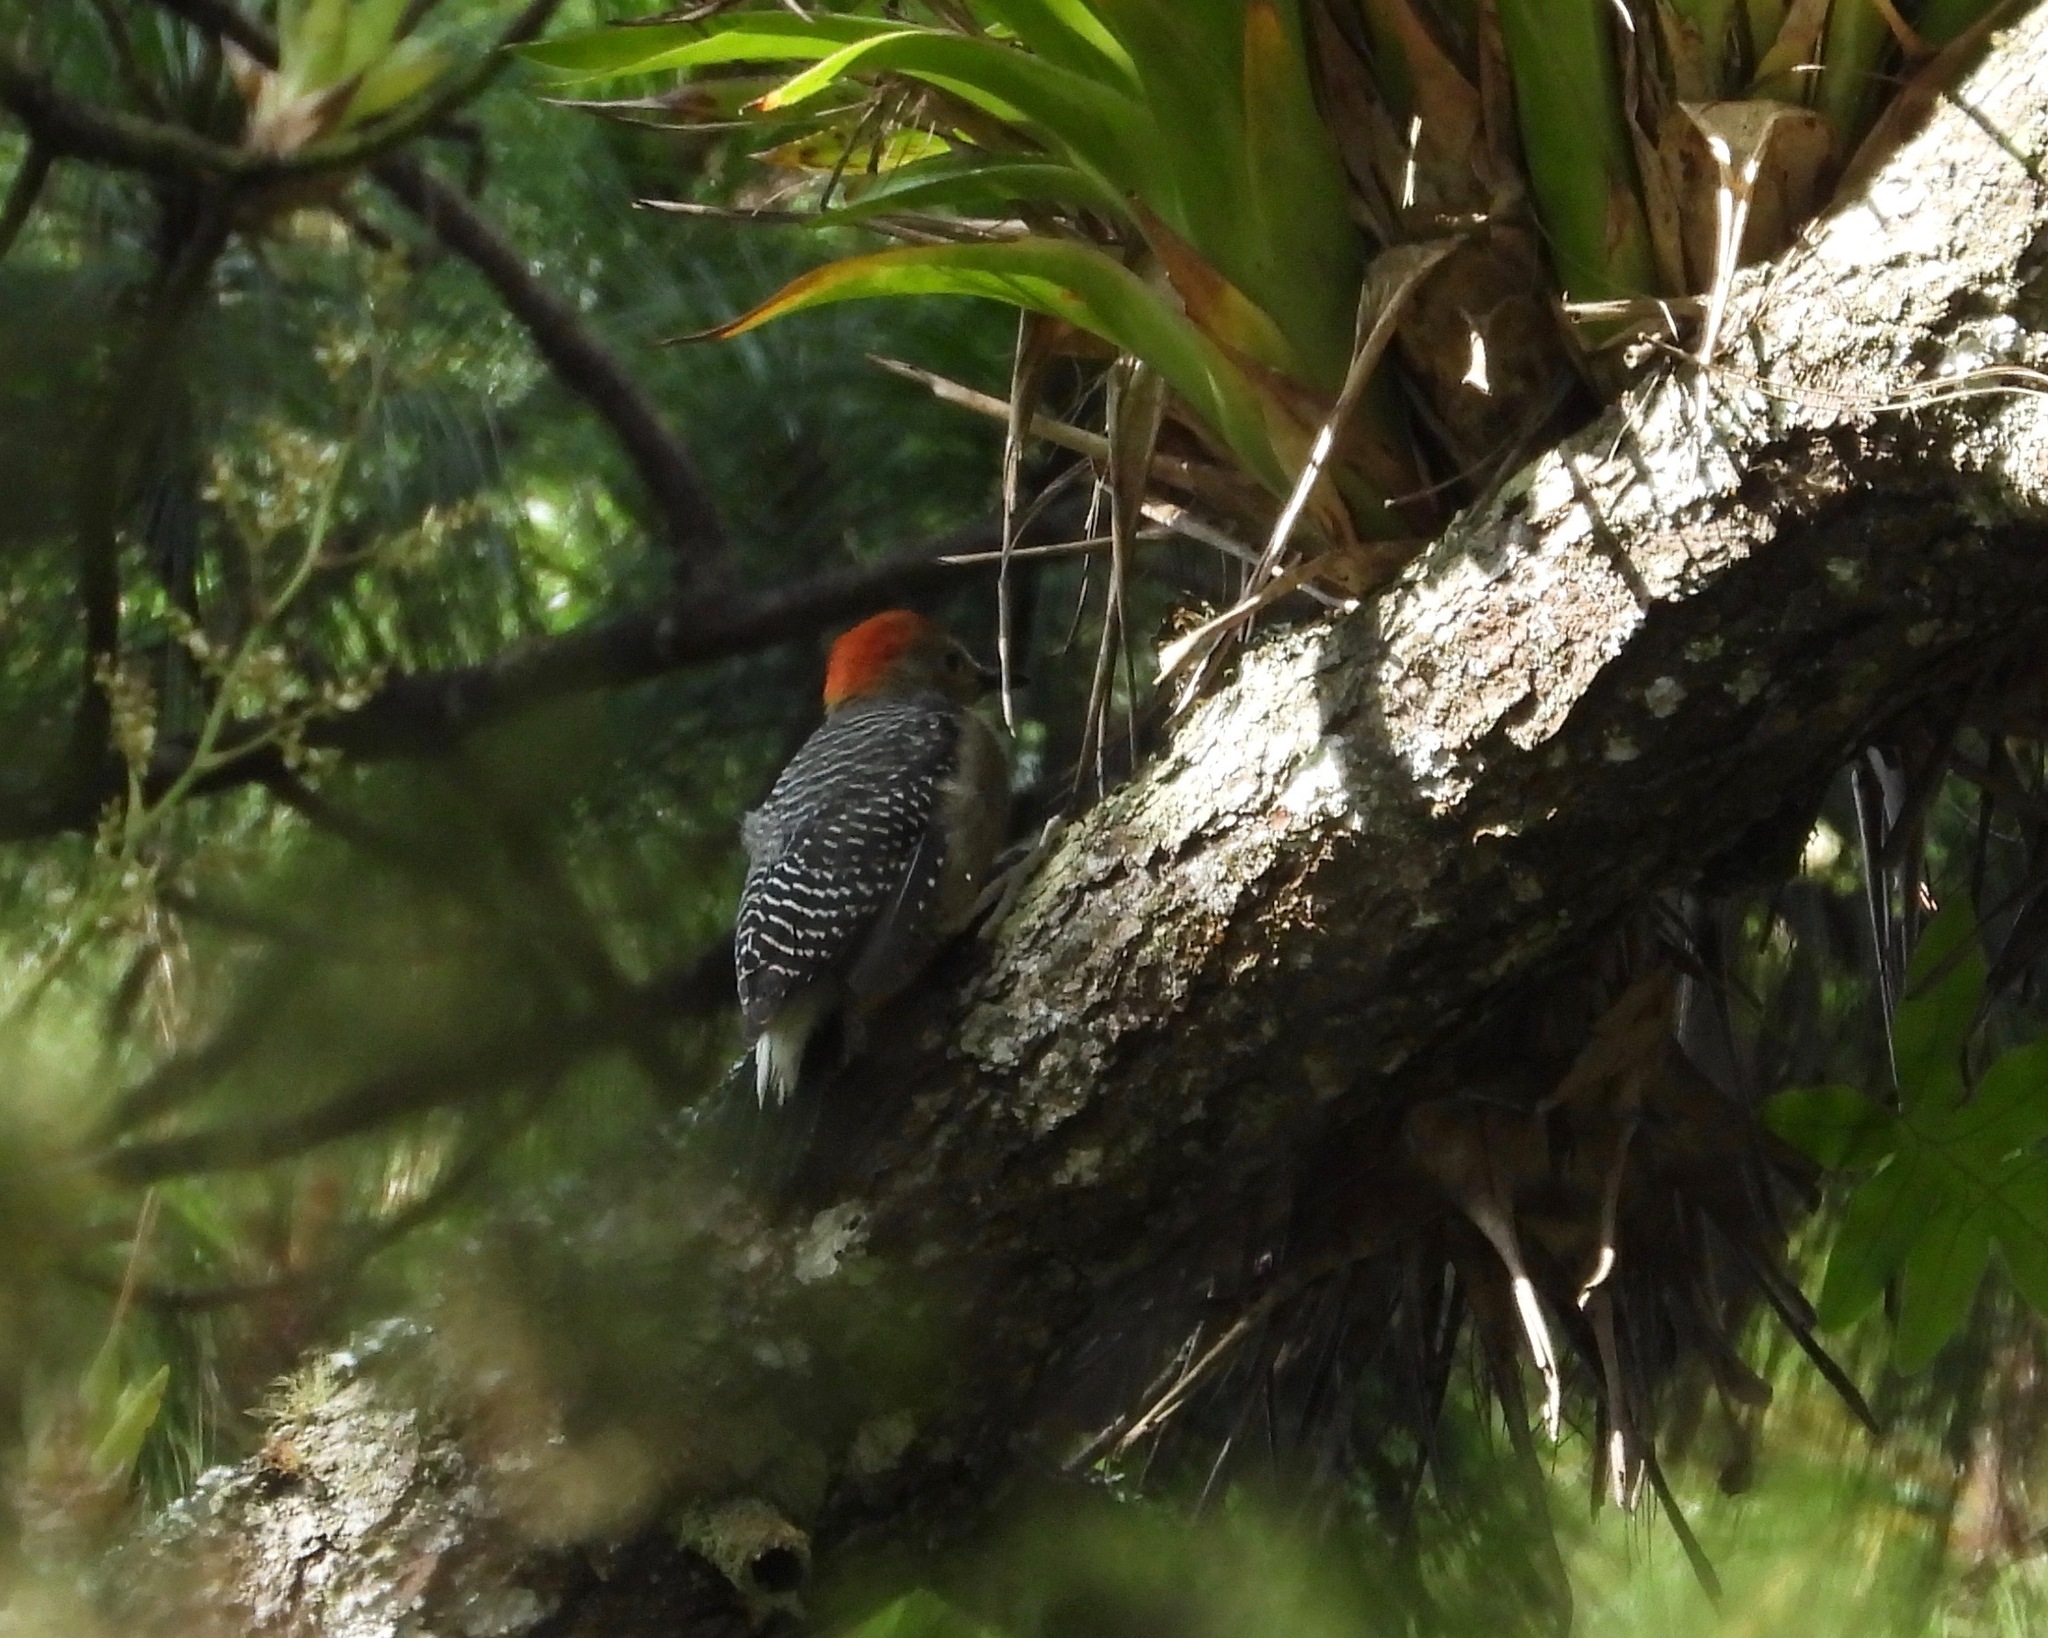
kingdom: Animalia
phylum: Chordata
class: Aves
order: Piciformes
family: Picidae
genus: Melanerpes
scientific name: Melanerpes aurifrons
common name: Golden-fronted woodpecker
